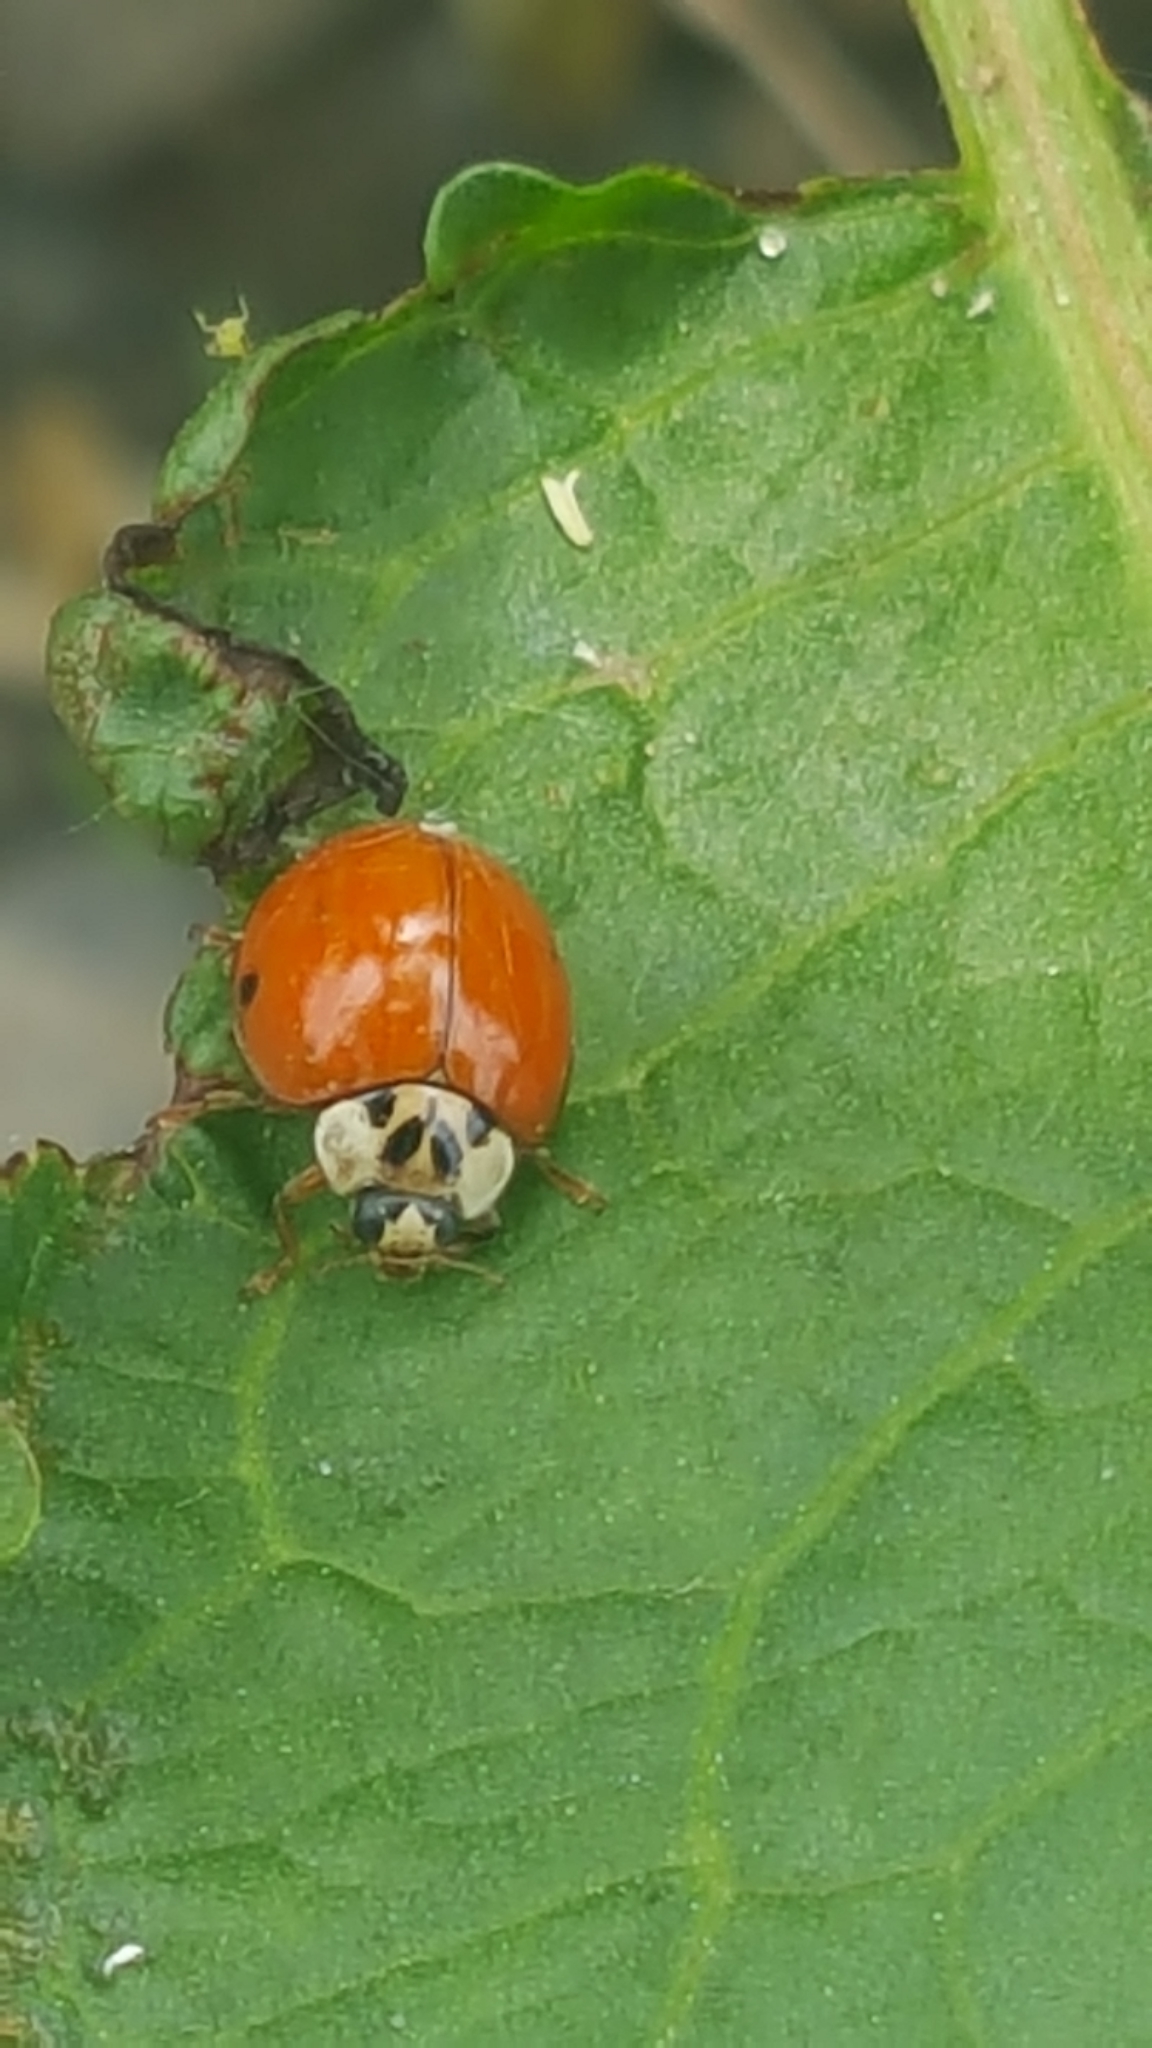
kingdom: Animalia
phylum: Arthropoda
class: Insecta
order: Coleoptera
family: Coccinellidae
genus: Harmonia
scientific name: Harmonia axyridis
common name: Harlequin ladybird
